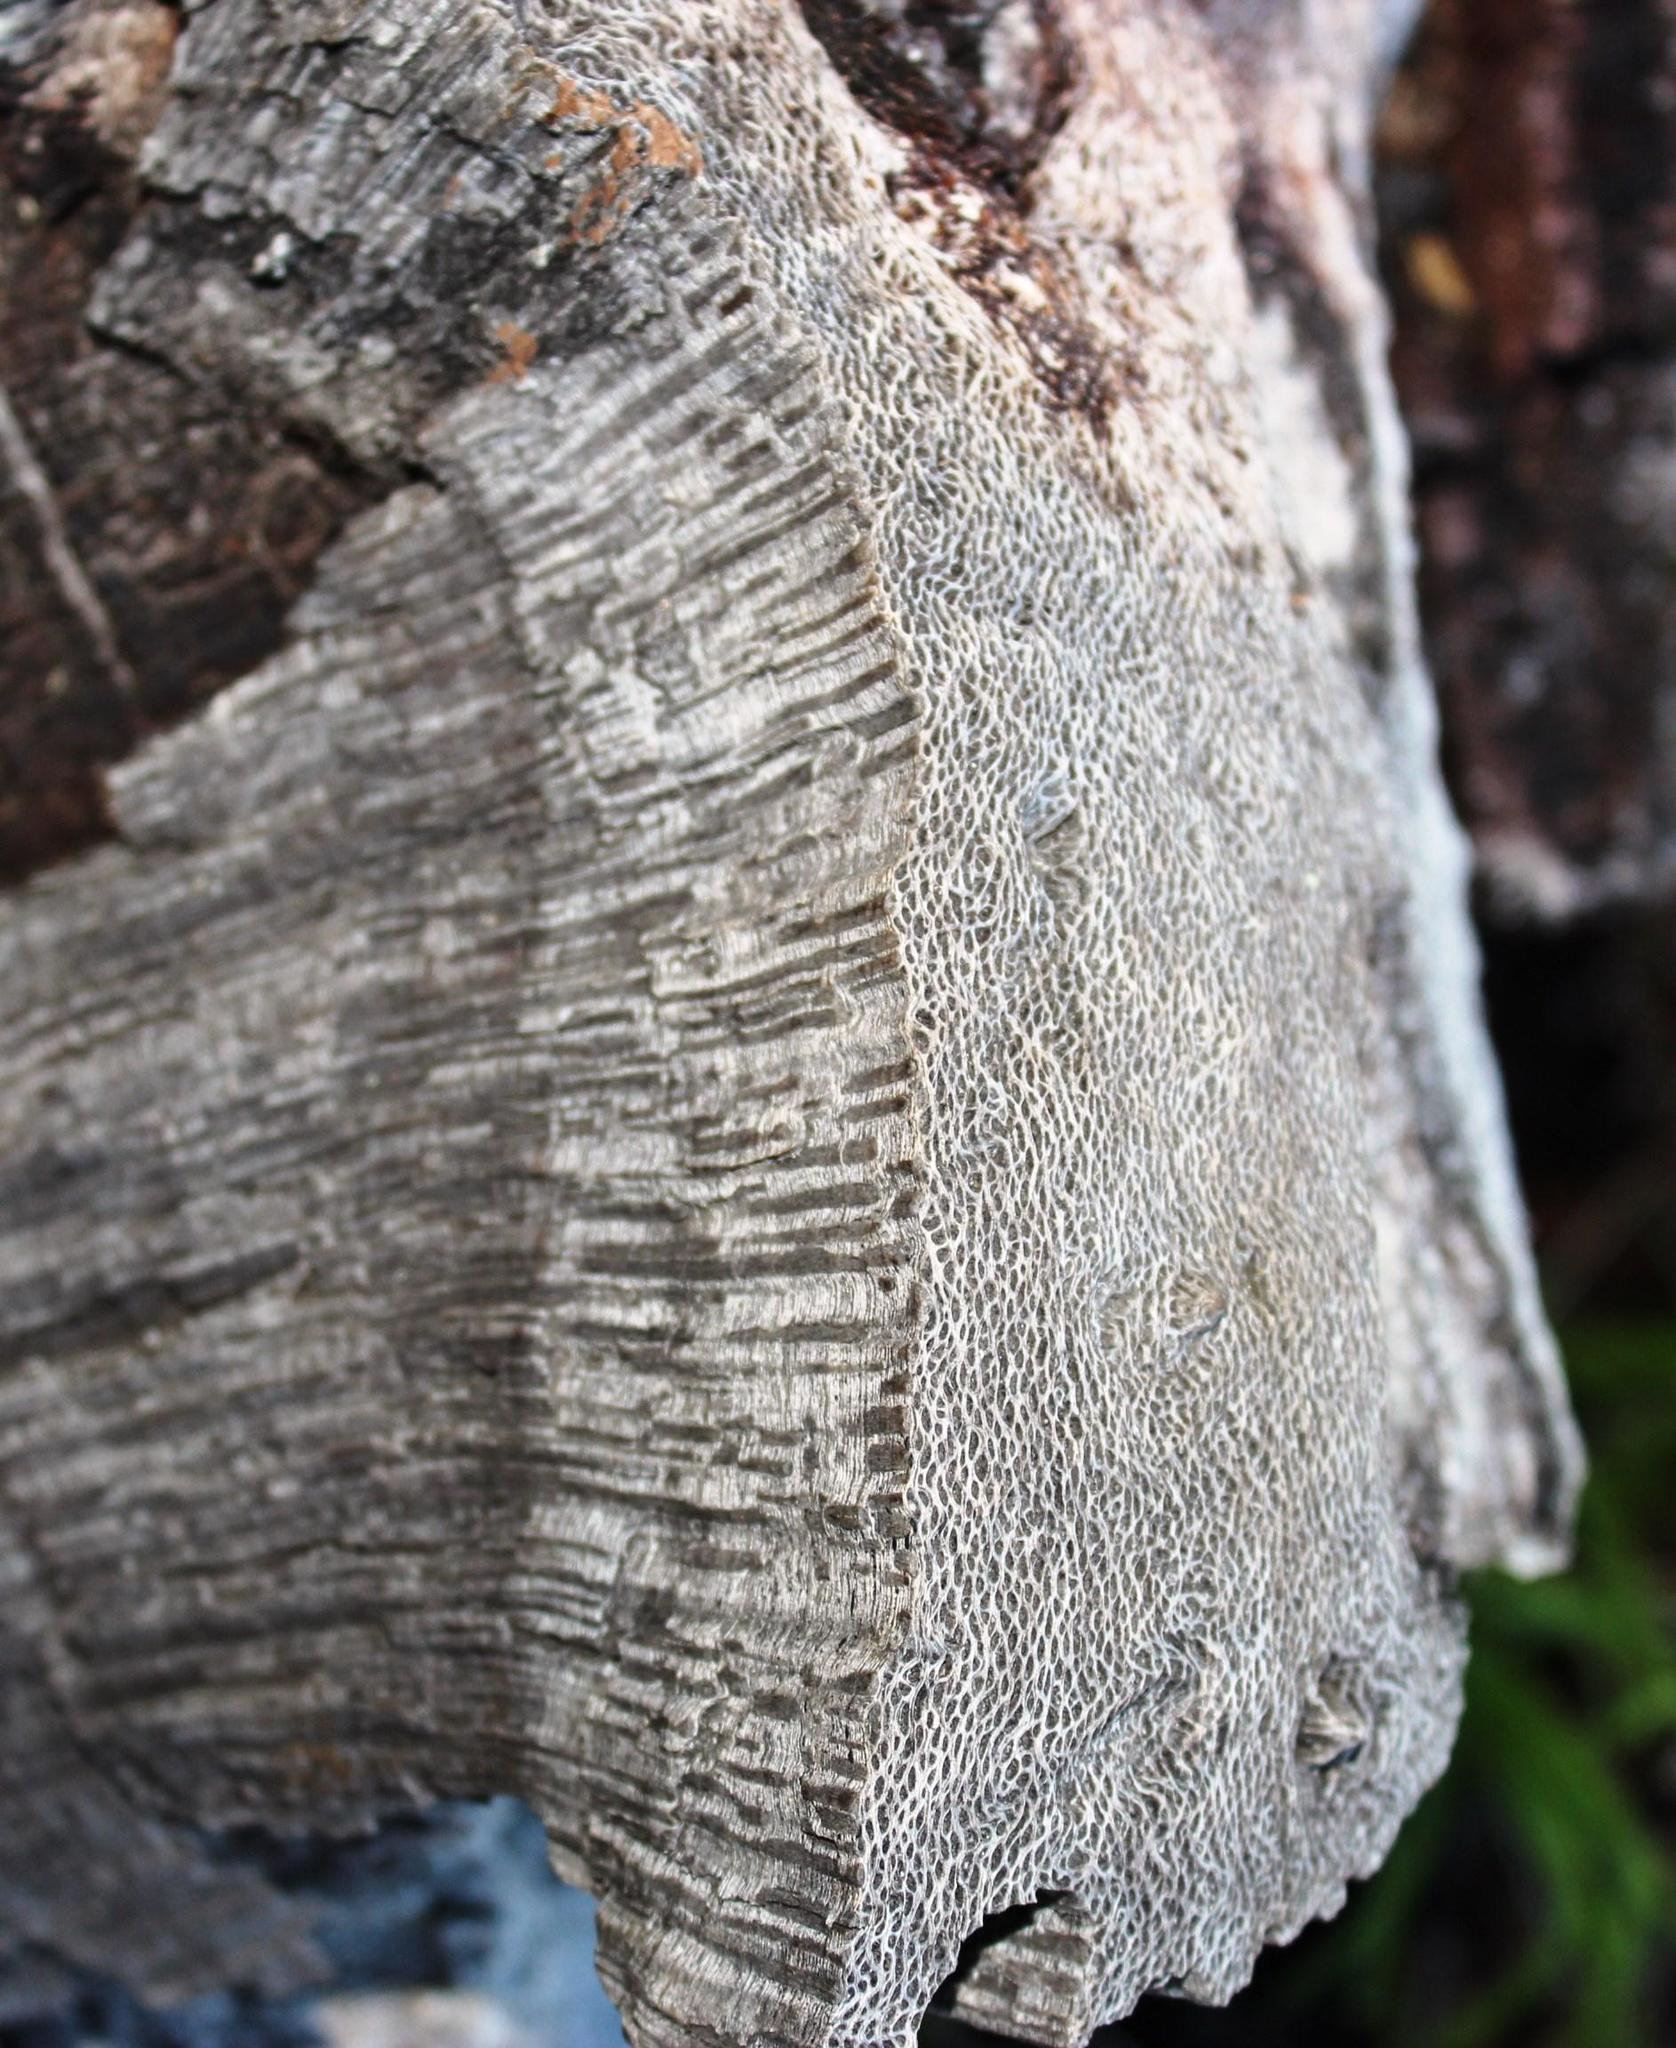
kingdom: Plantae
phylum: Tracheophyta
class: Magnoliopsida
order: Proteales
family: Proteaceae
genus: Protea
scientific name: Protea nitida
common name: Tree protea
